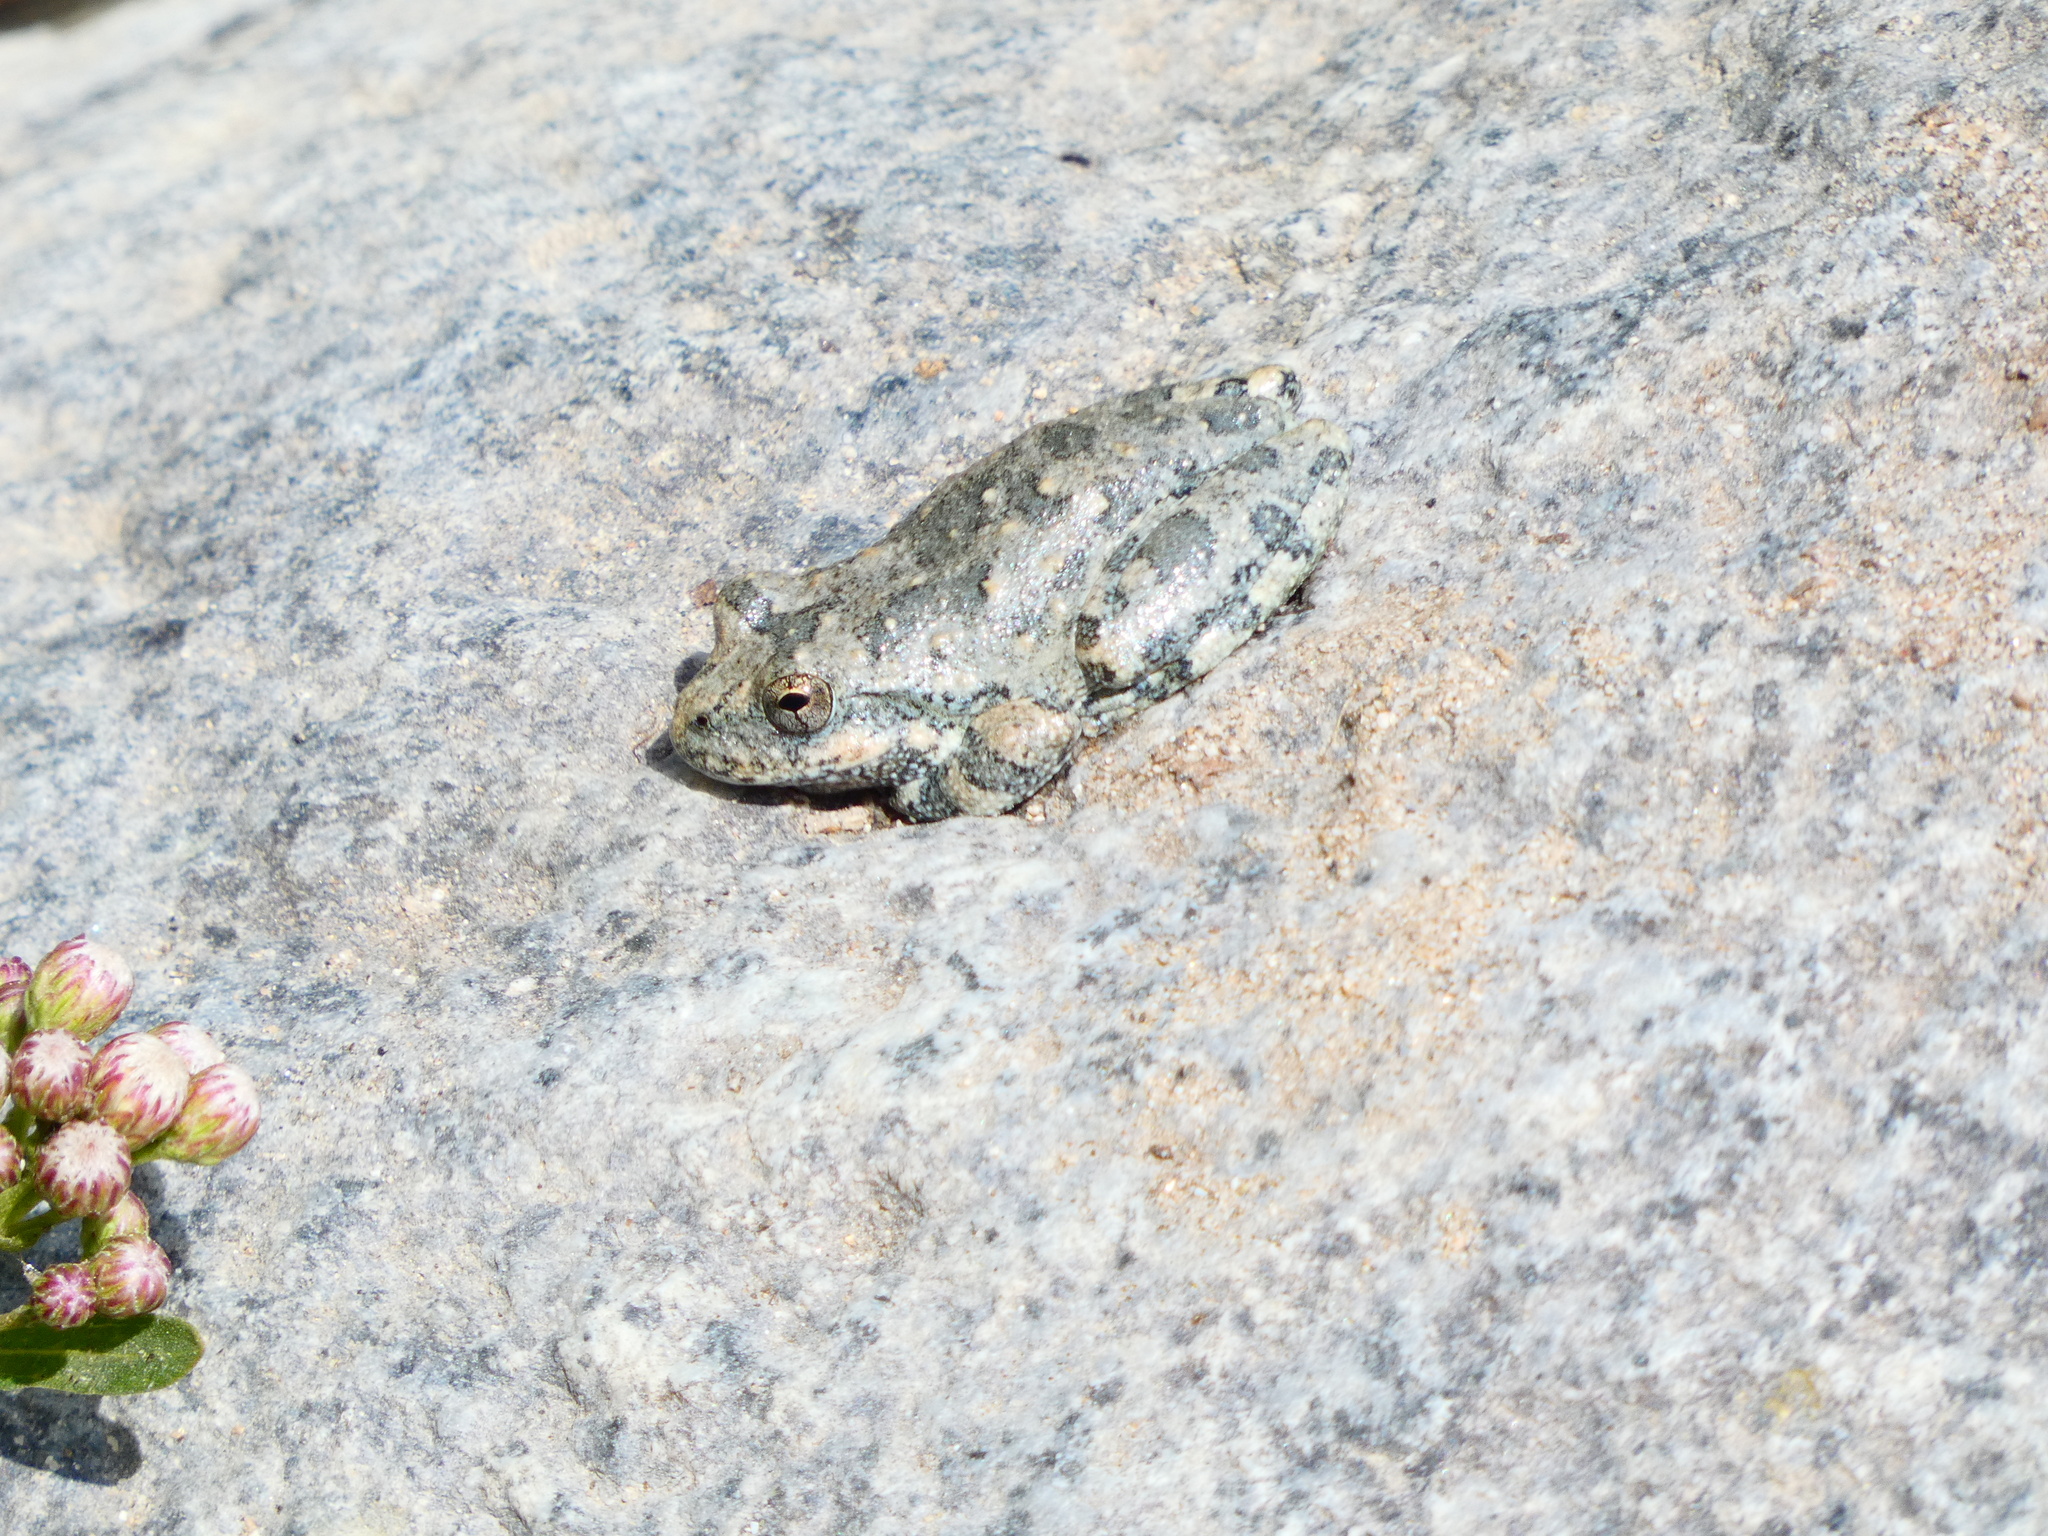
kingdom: Animalia
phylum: Chordata
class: Amphibia
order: Anura
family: Hylidae
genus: Pseudacris
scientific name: Pseudacris cadaverina
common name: California chorus frog
